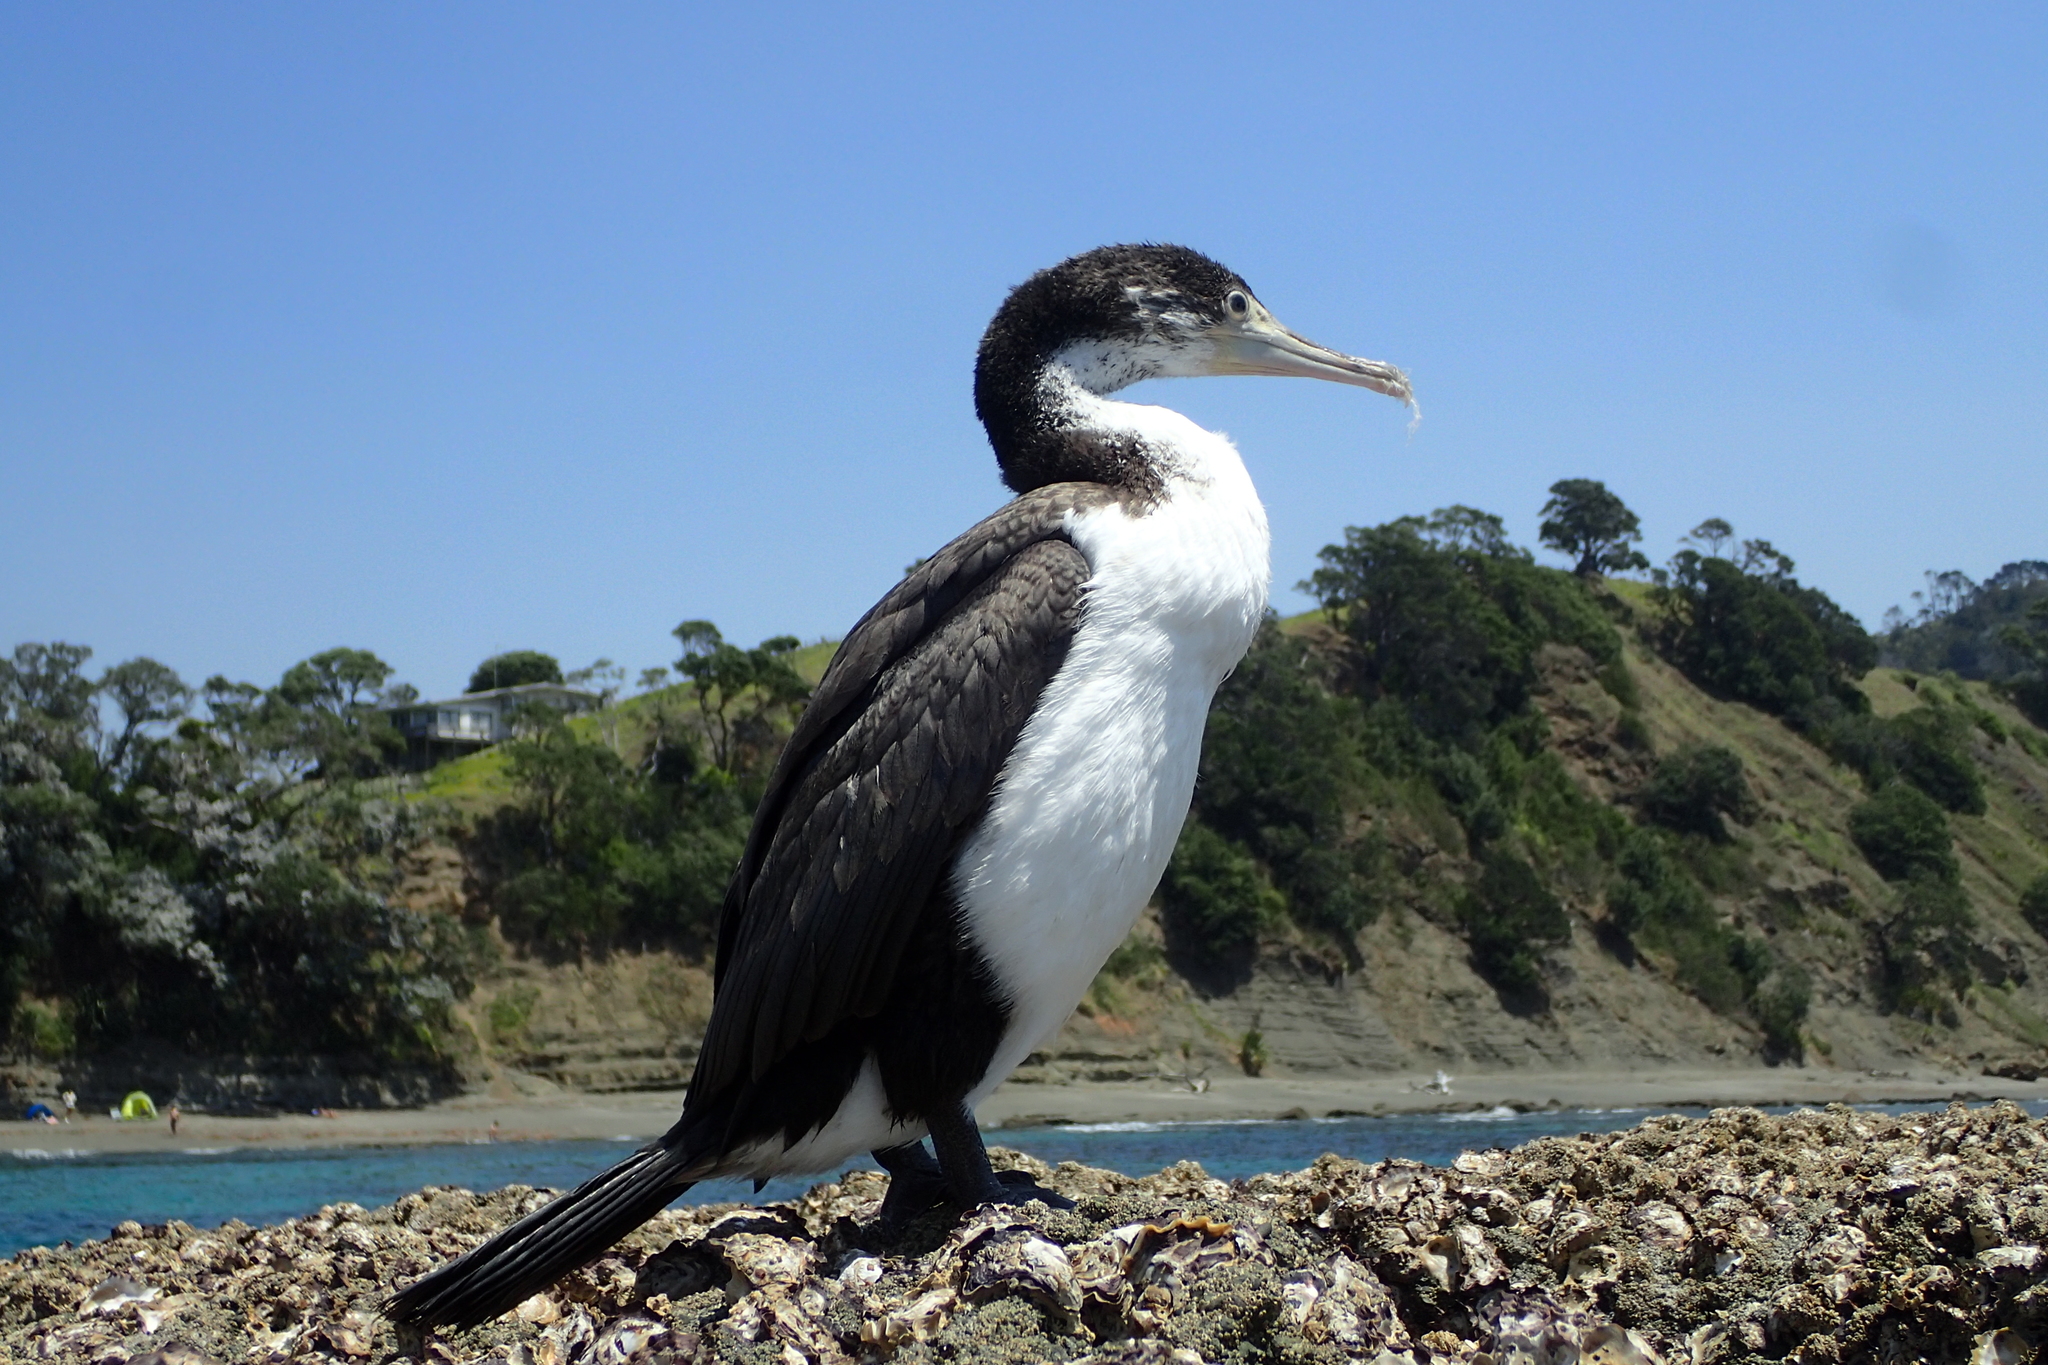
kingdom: Animalia
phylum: Chordata
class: Aves
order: Suliformes
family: Phalacrocoracidae
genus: Phalacrocorax
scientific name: Phalacrocorax varius
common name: Pied cormorant
